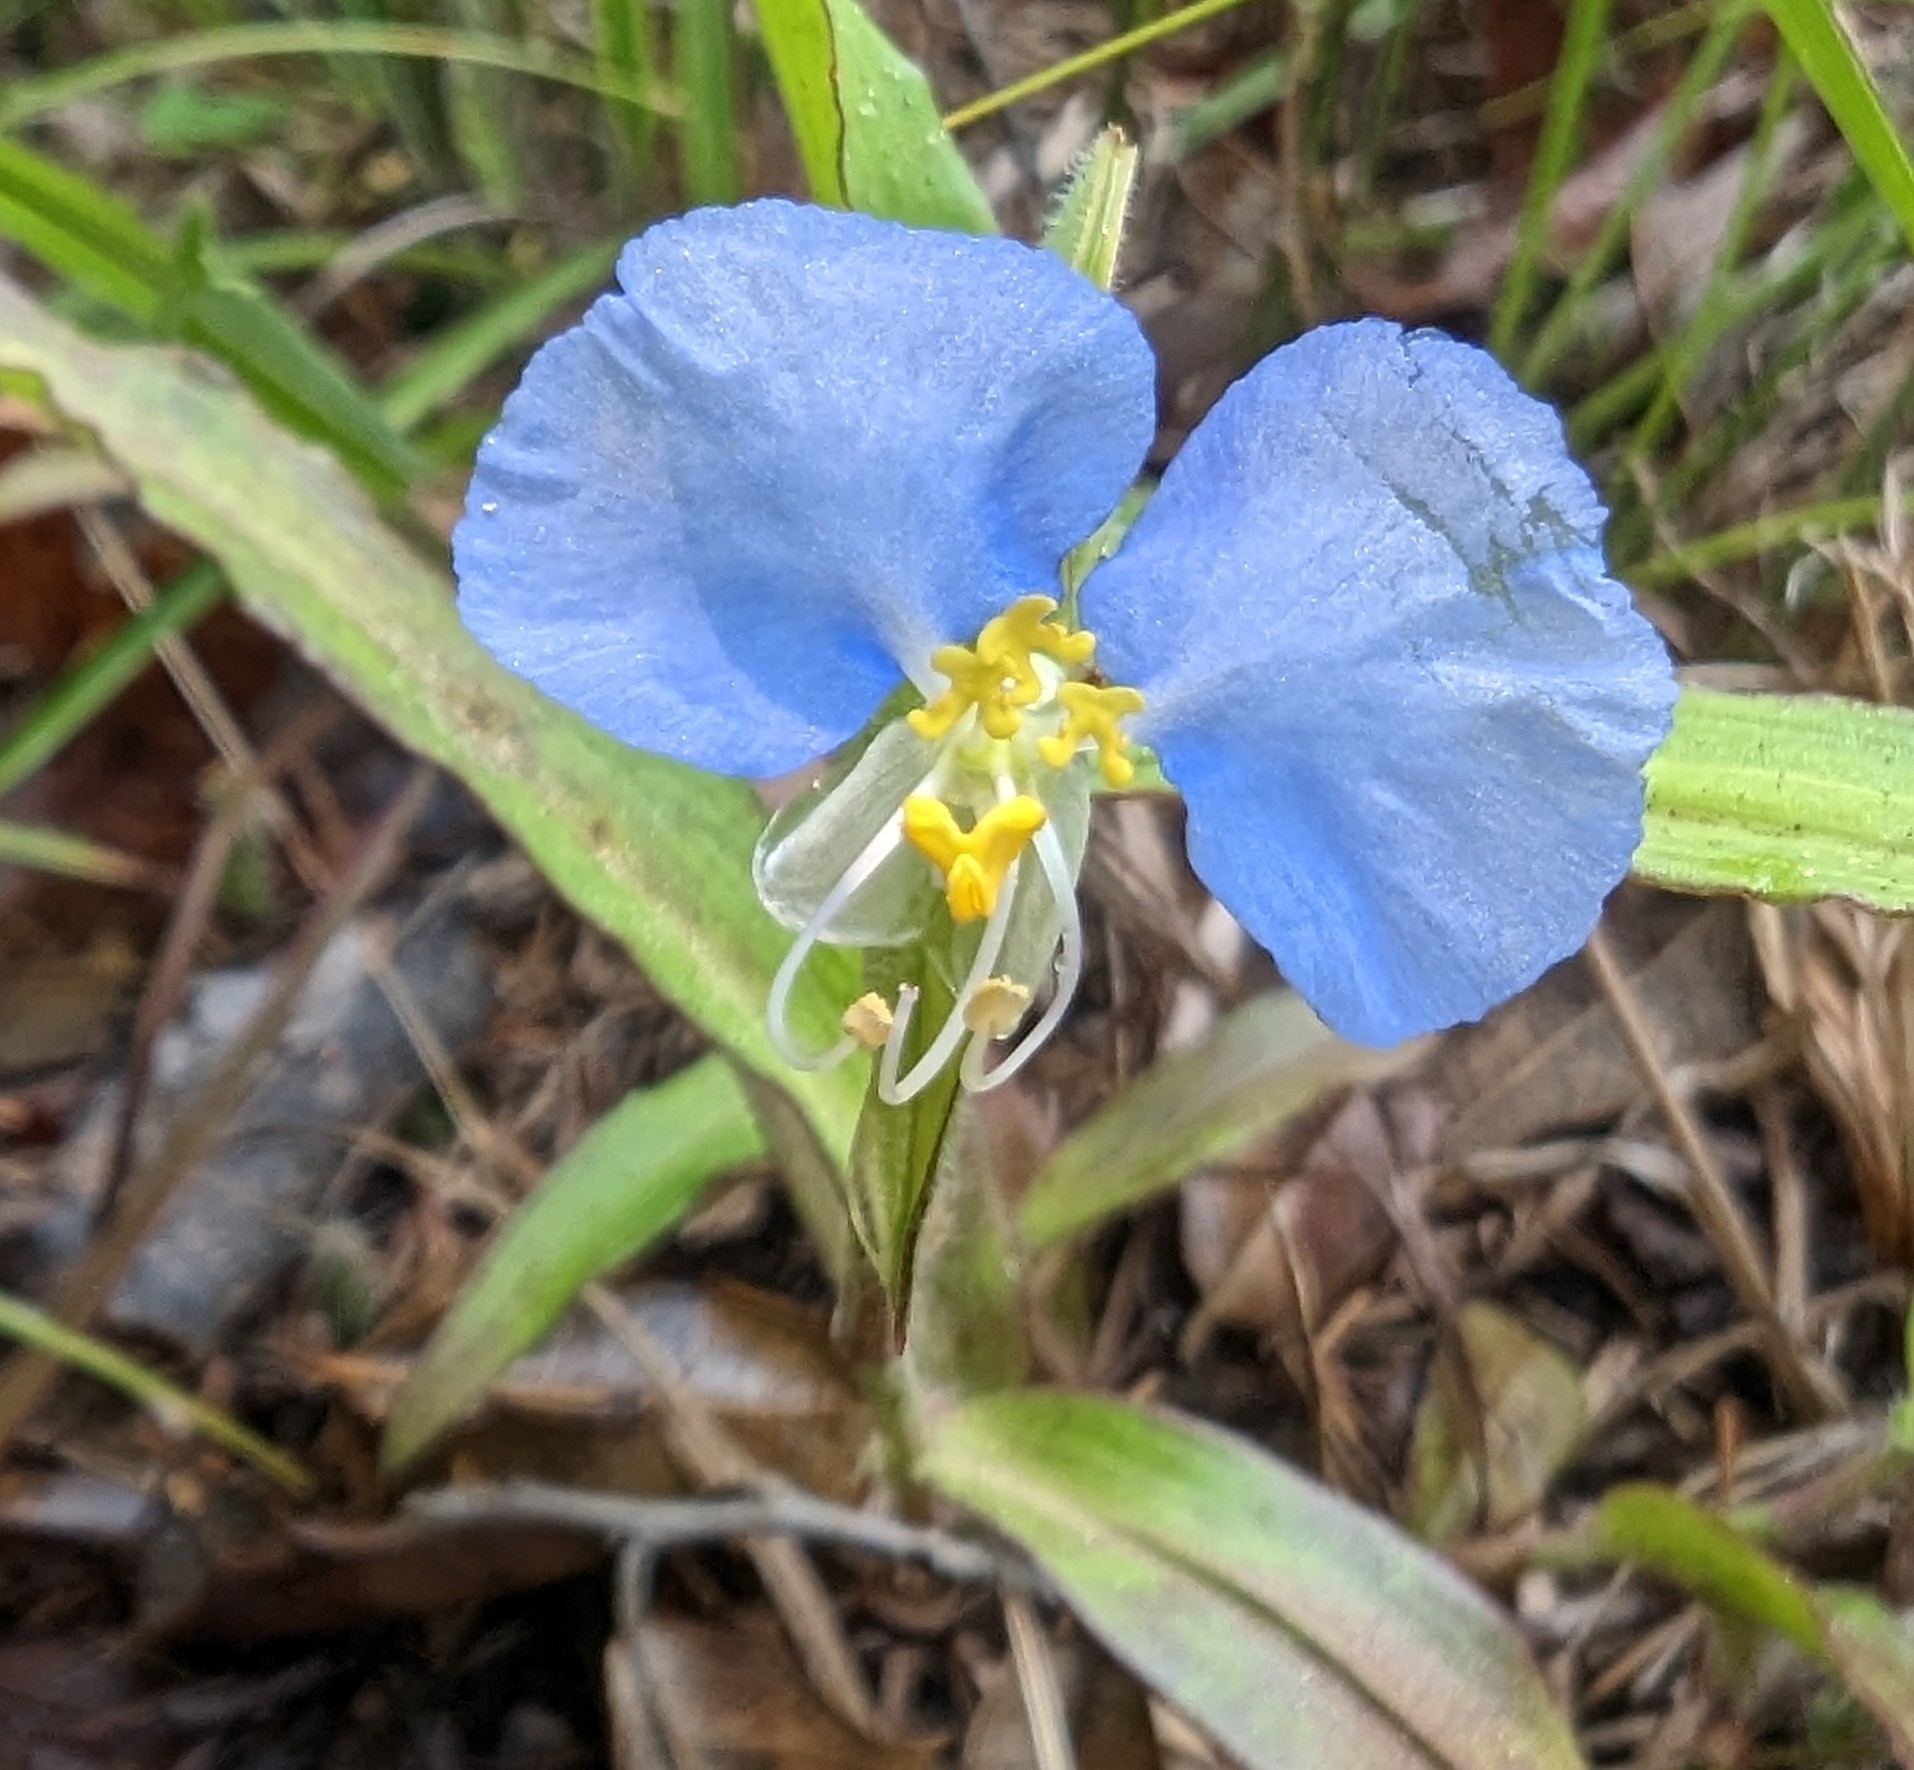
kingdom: Plantae
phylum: Tracheophyta
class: Liliopsida
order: Commelinales
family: Commelinaceae
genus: Commelina
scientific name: Commelina erecta
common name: Blousel blommetjie
